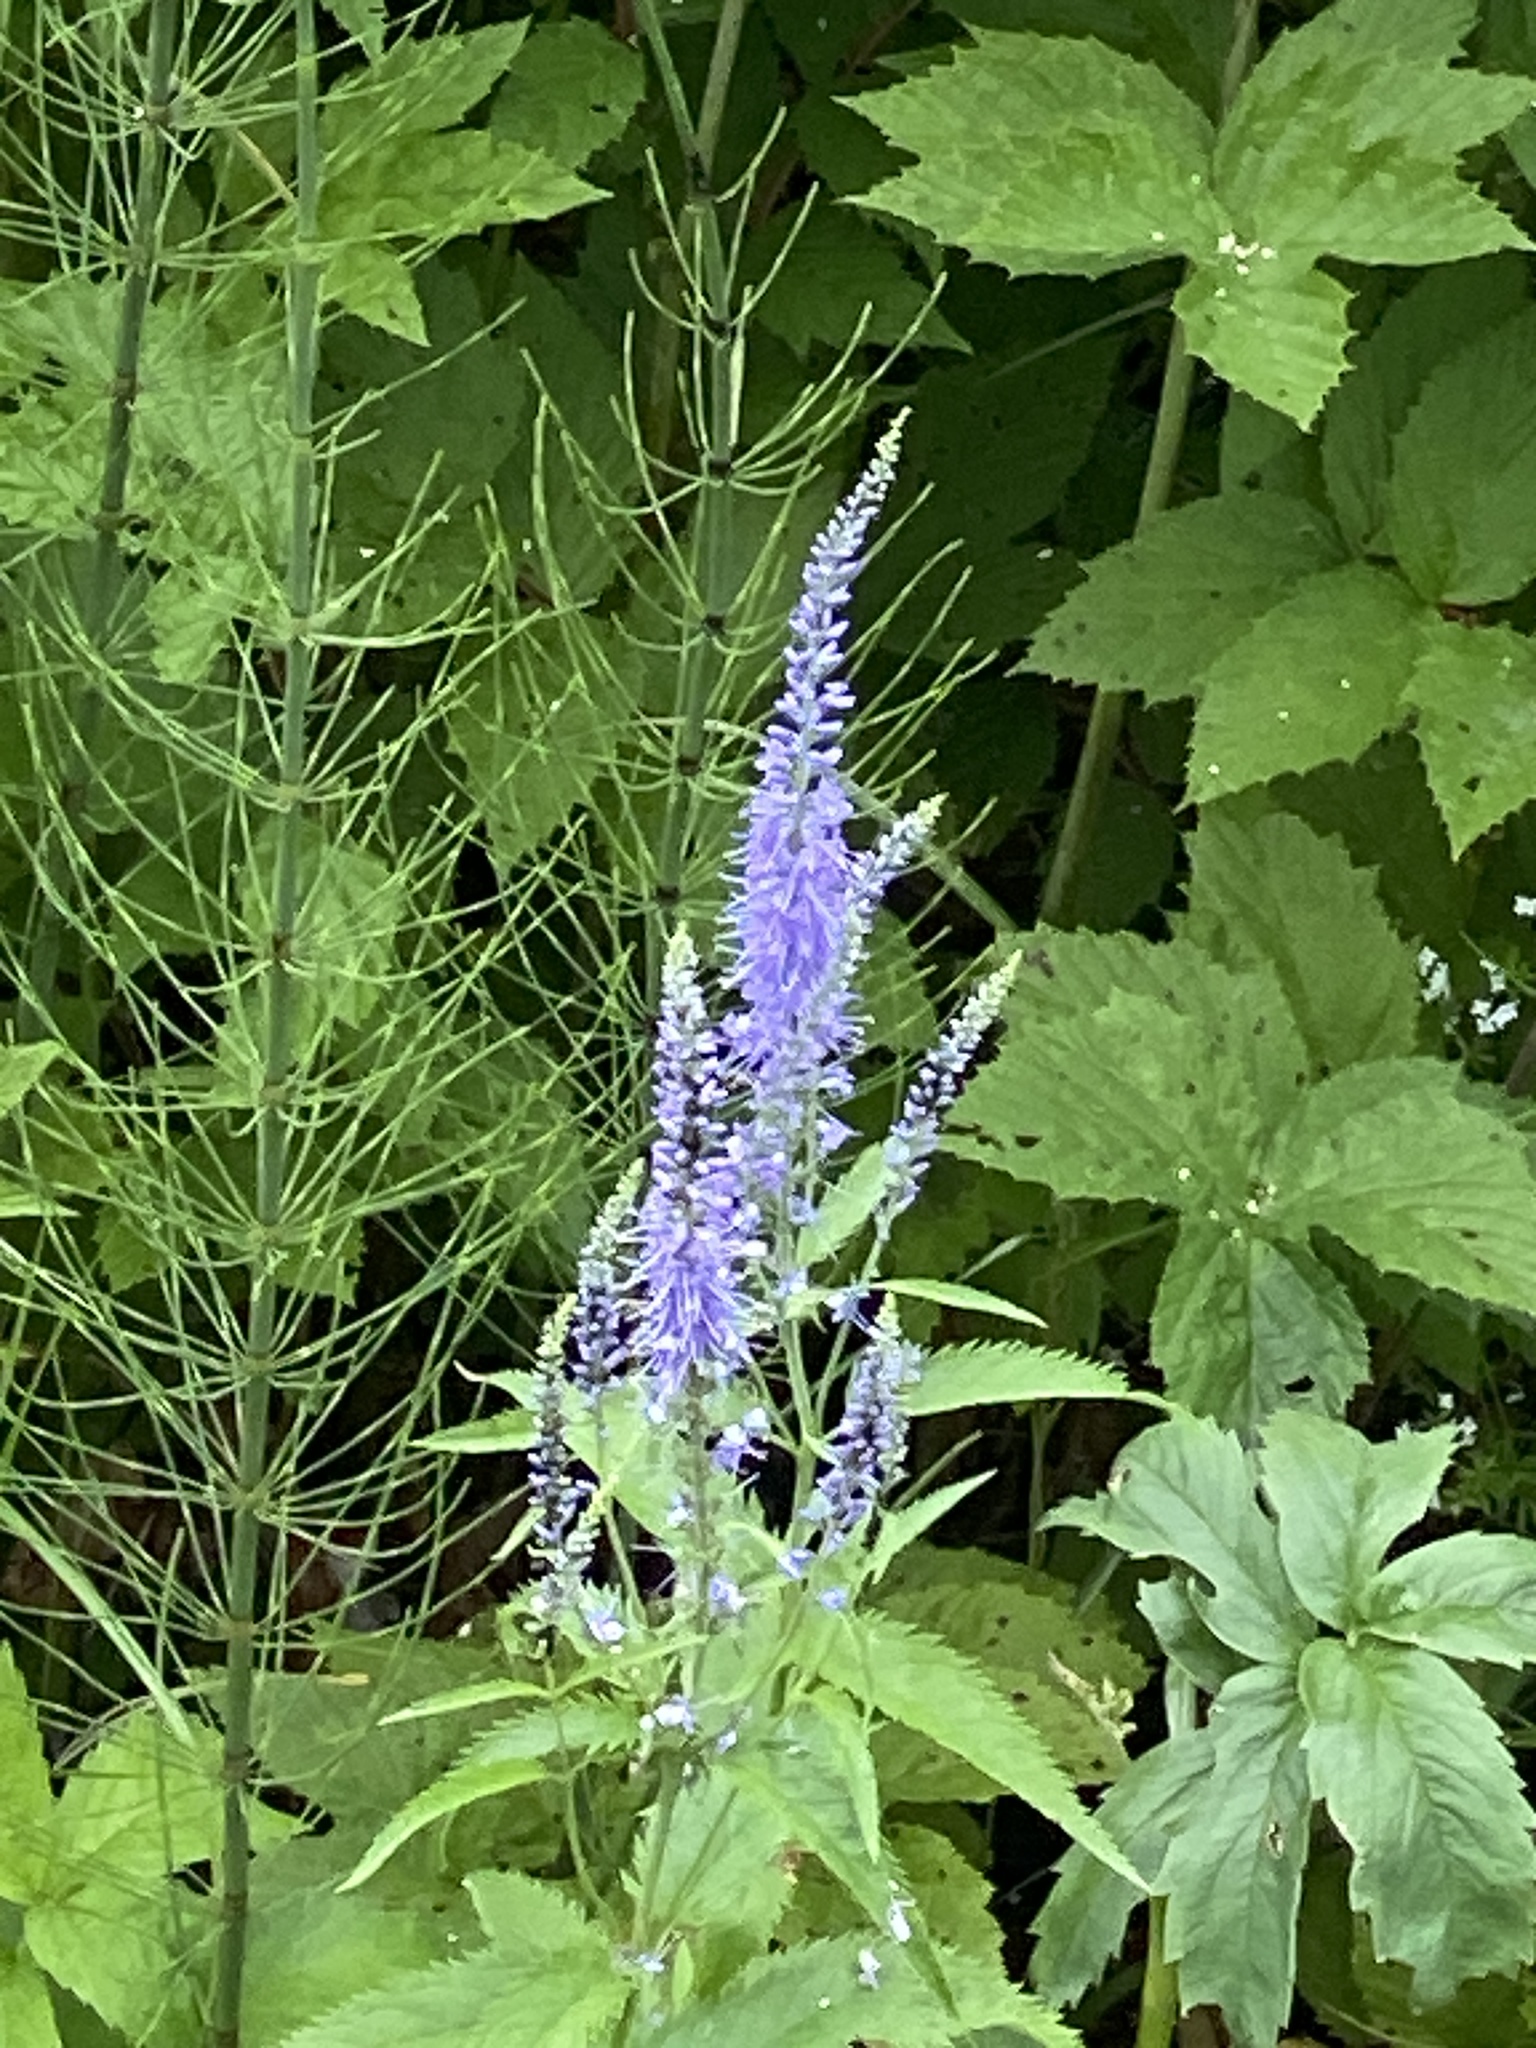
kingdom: Plantae
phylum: Tracheophyta
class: Magnoliopsida
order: Lamiales
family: Plantaginaceae
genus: Veronica
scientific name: Veronica longifolia
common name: Garden speedwell
